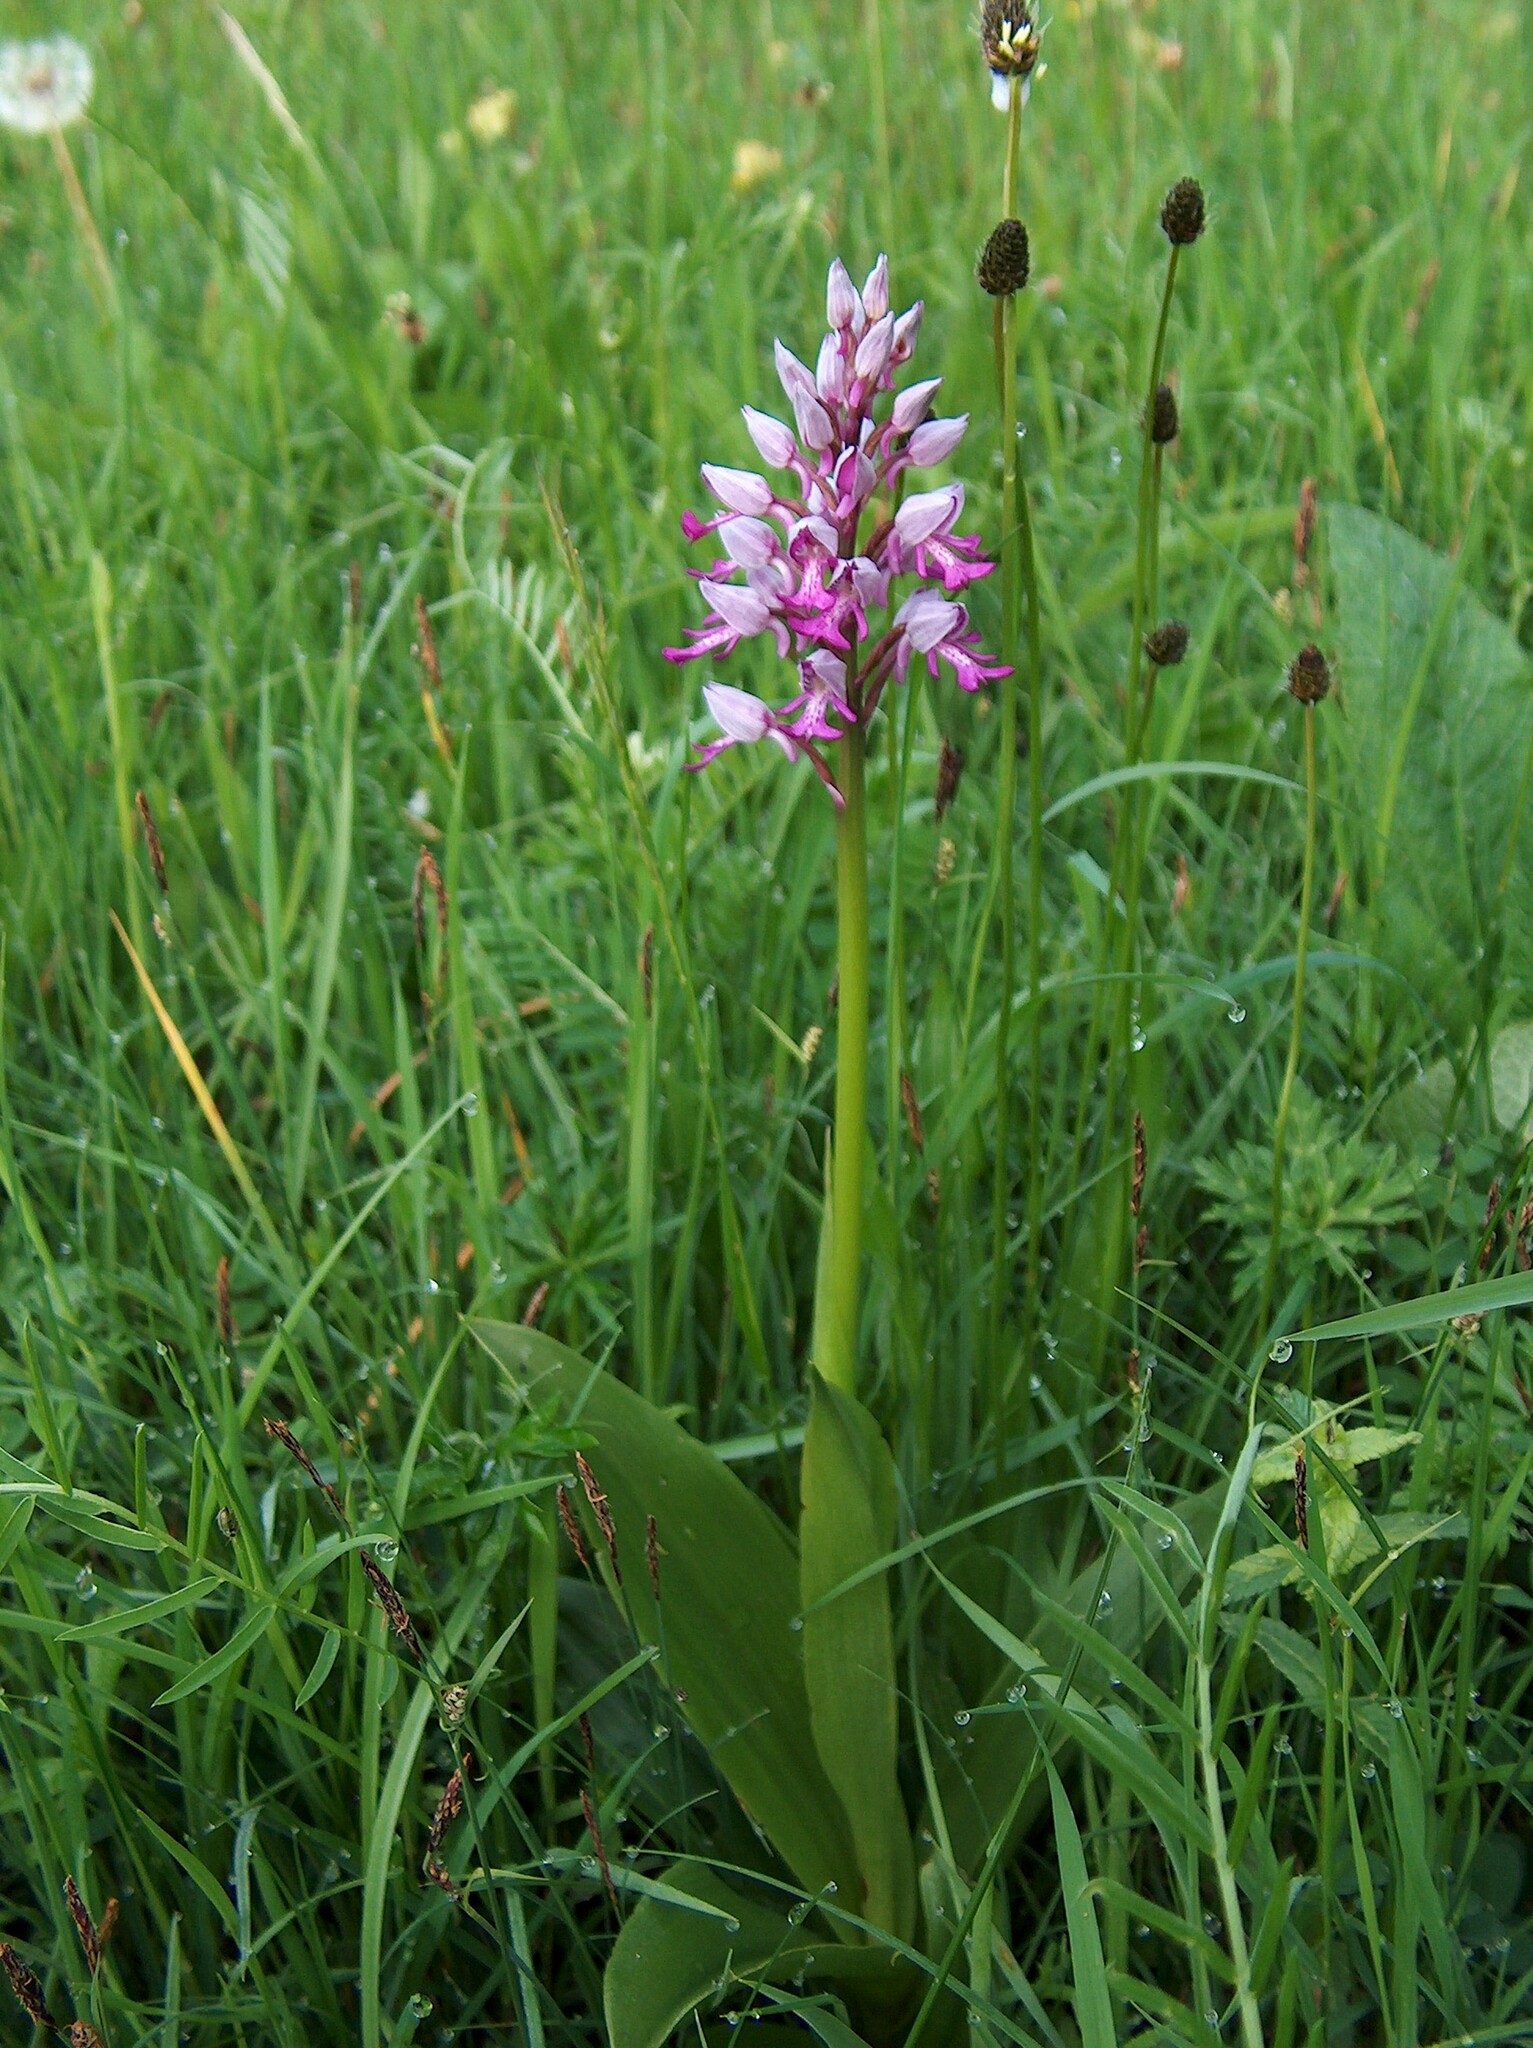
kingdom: Plantae
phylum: Tracheophyta
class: Liliopsida
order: Asparagales
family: Orchidaceae
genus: Orchis
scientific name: Orchis militaris
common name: Military orchid
